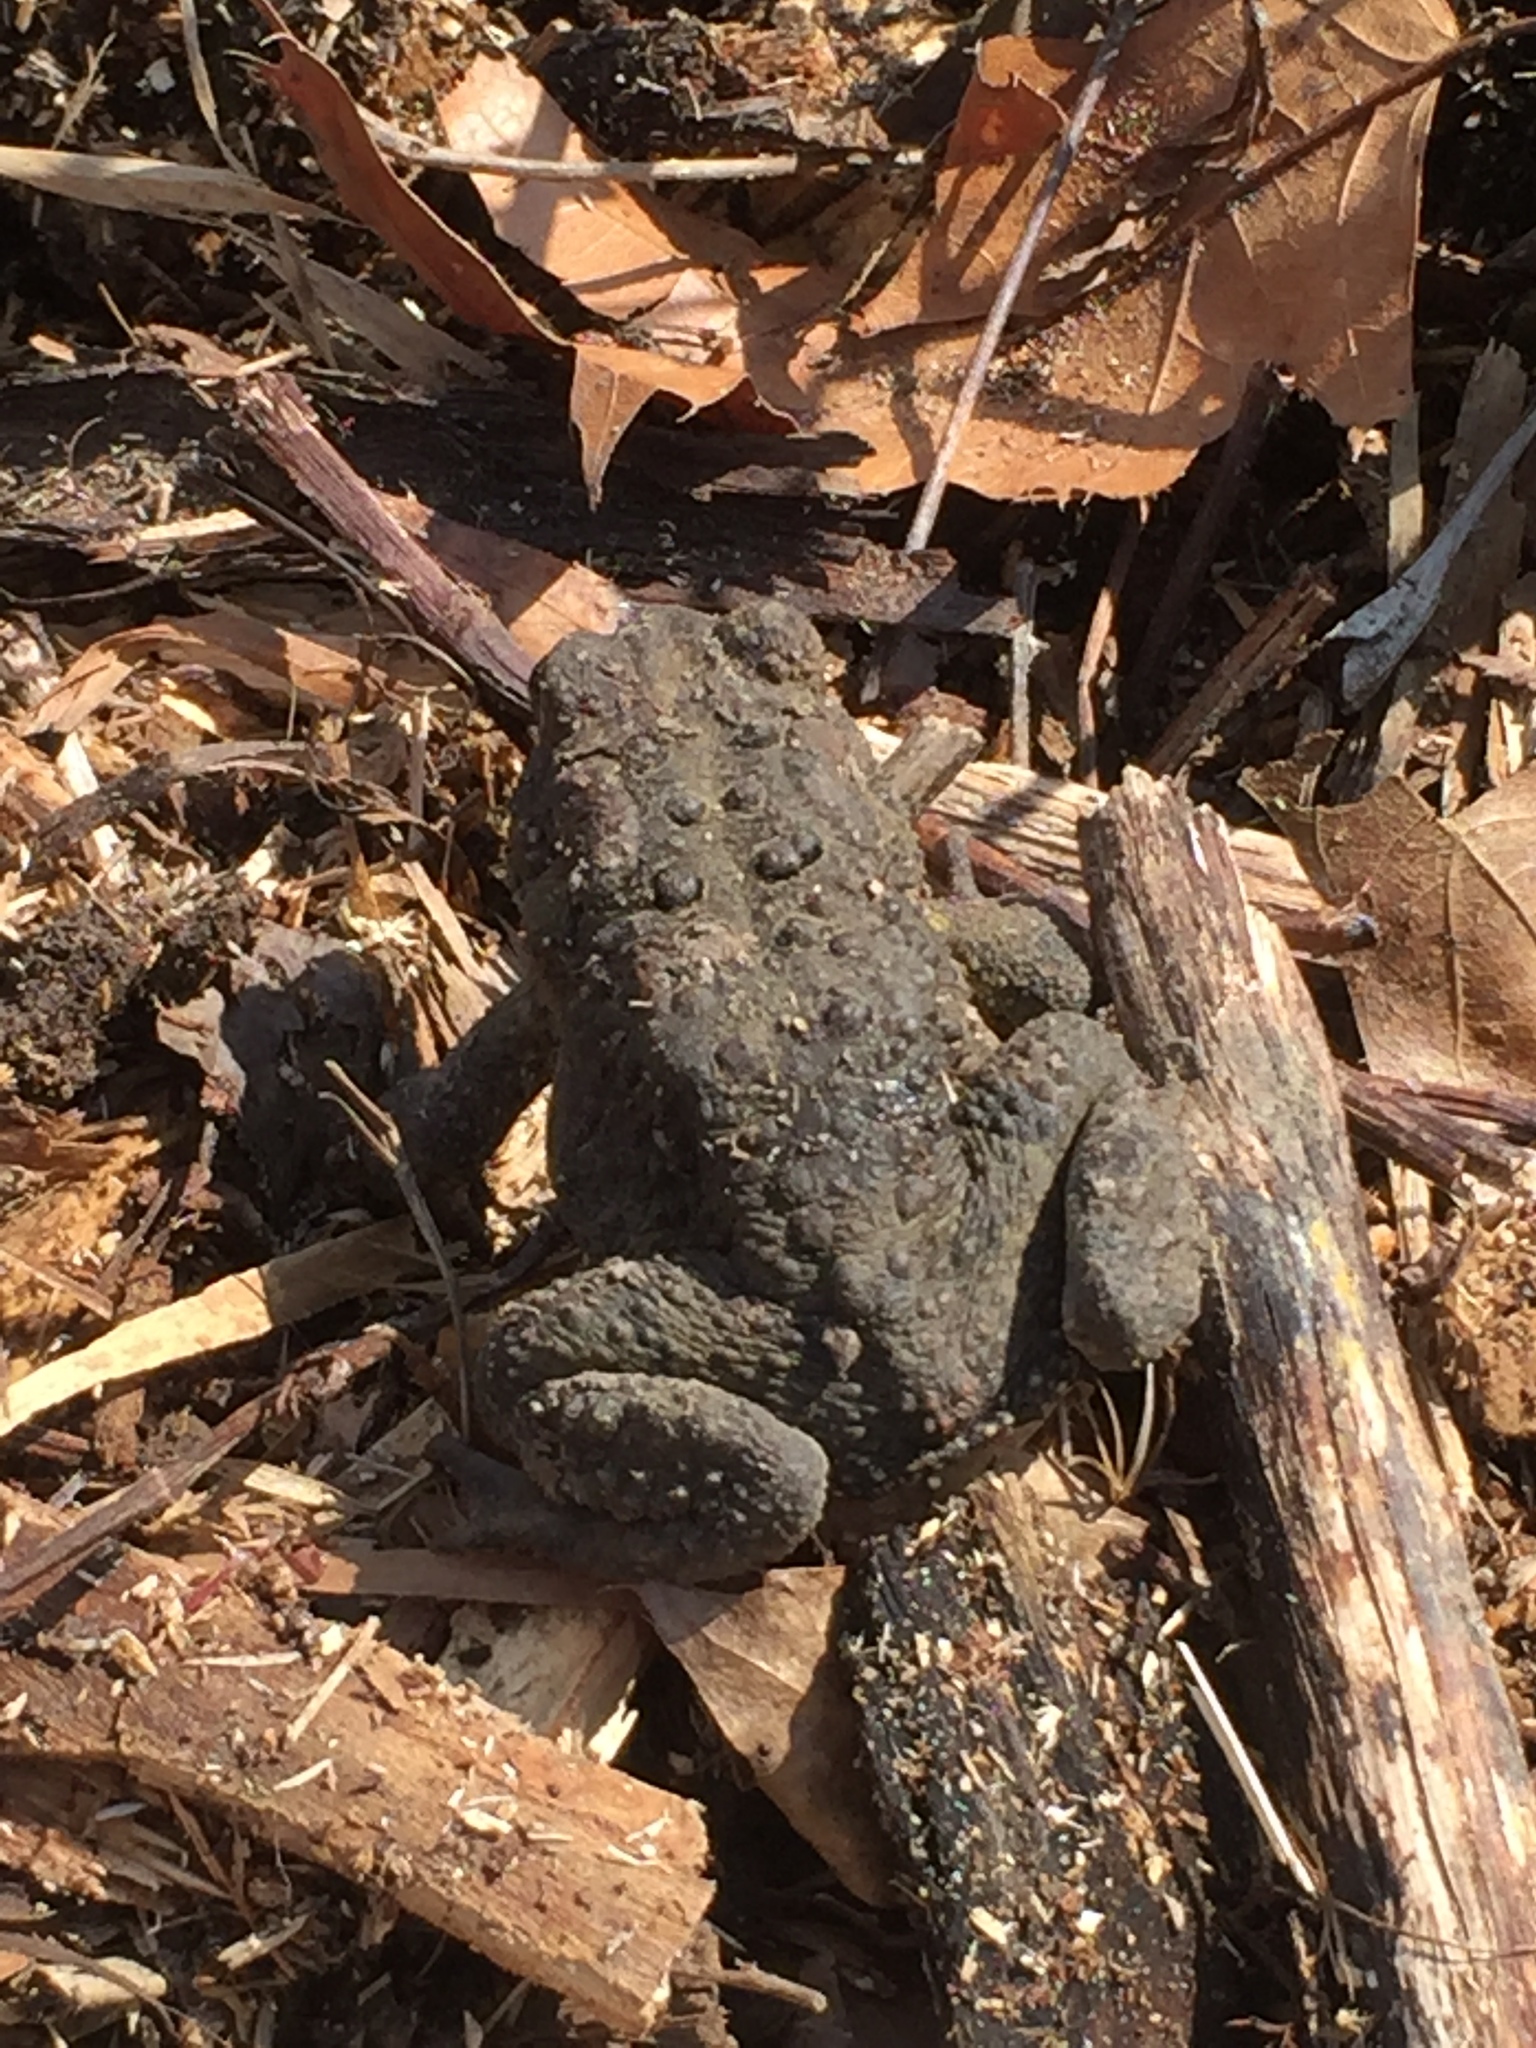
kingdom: Animalia
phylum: Chordata
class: Amphibia
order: Anura
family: Bufonidae
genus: Anaxyrus
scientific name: Anaxyrus americanus
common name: American toad
